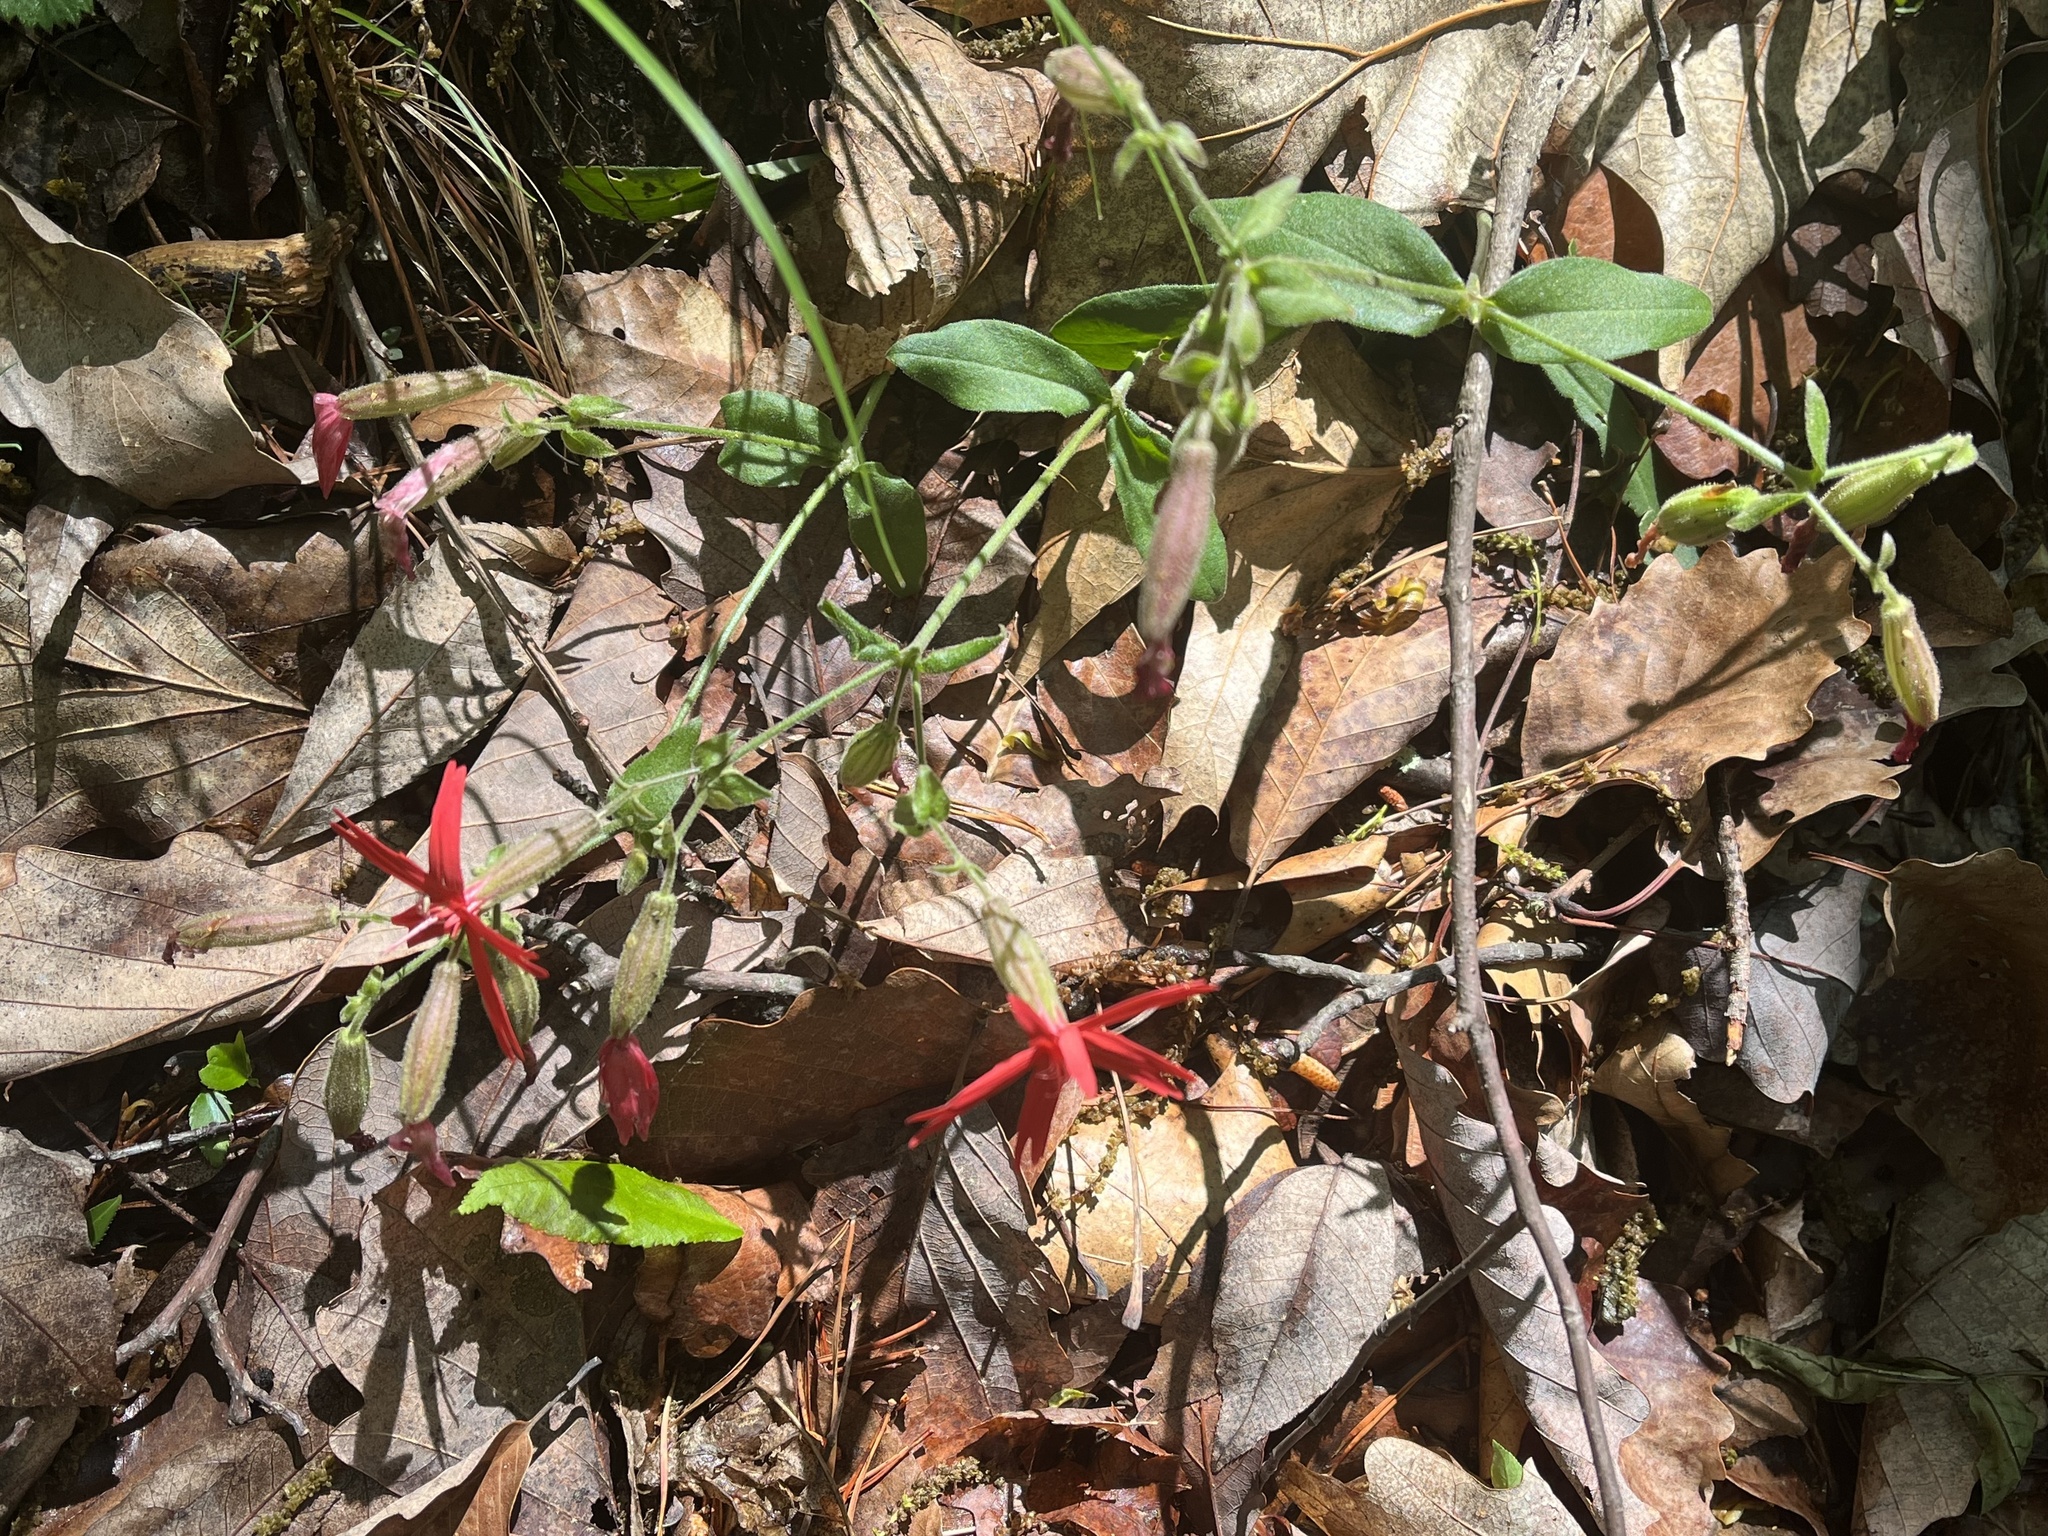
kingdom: Plantae
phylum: Tracheophyta
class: Magnoliopsida
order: Caryophyllales
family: Caryophyllaceae
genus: Silene
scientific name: Silene virginica
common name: Fire-pink
